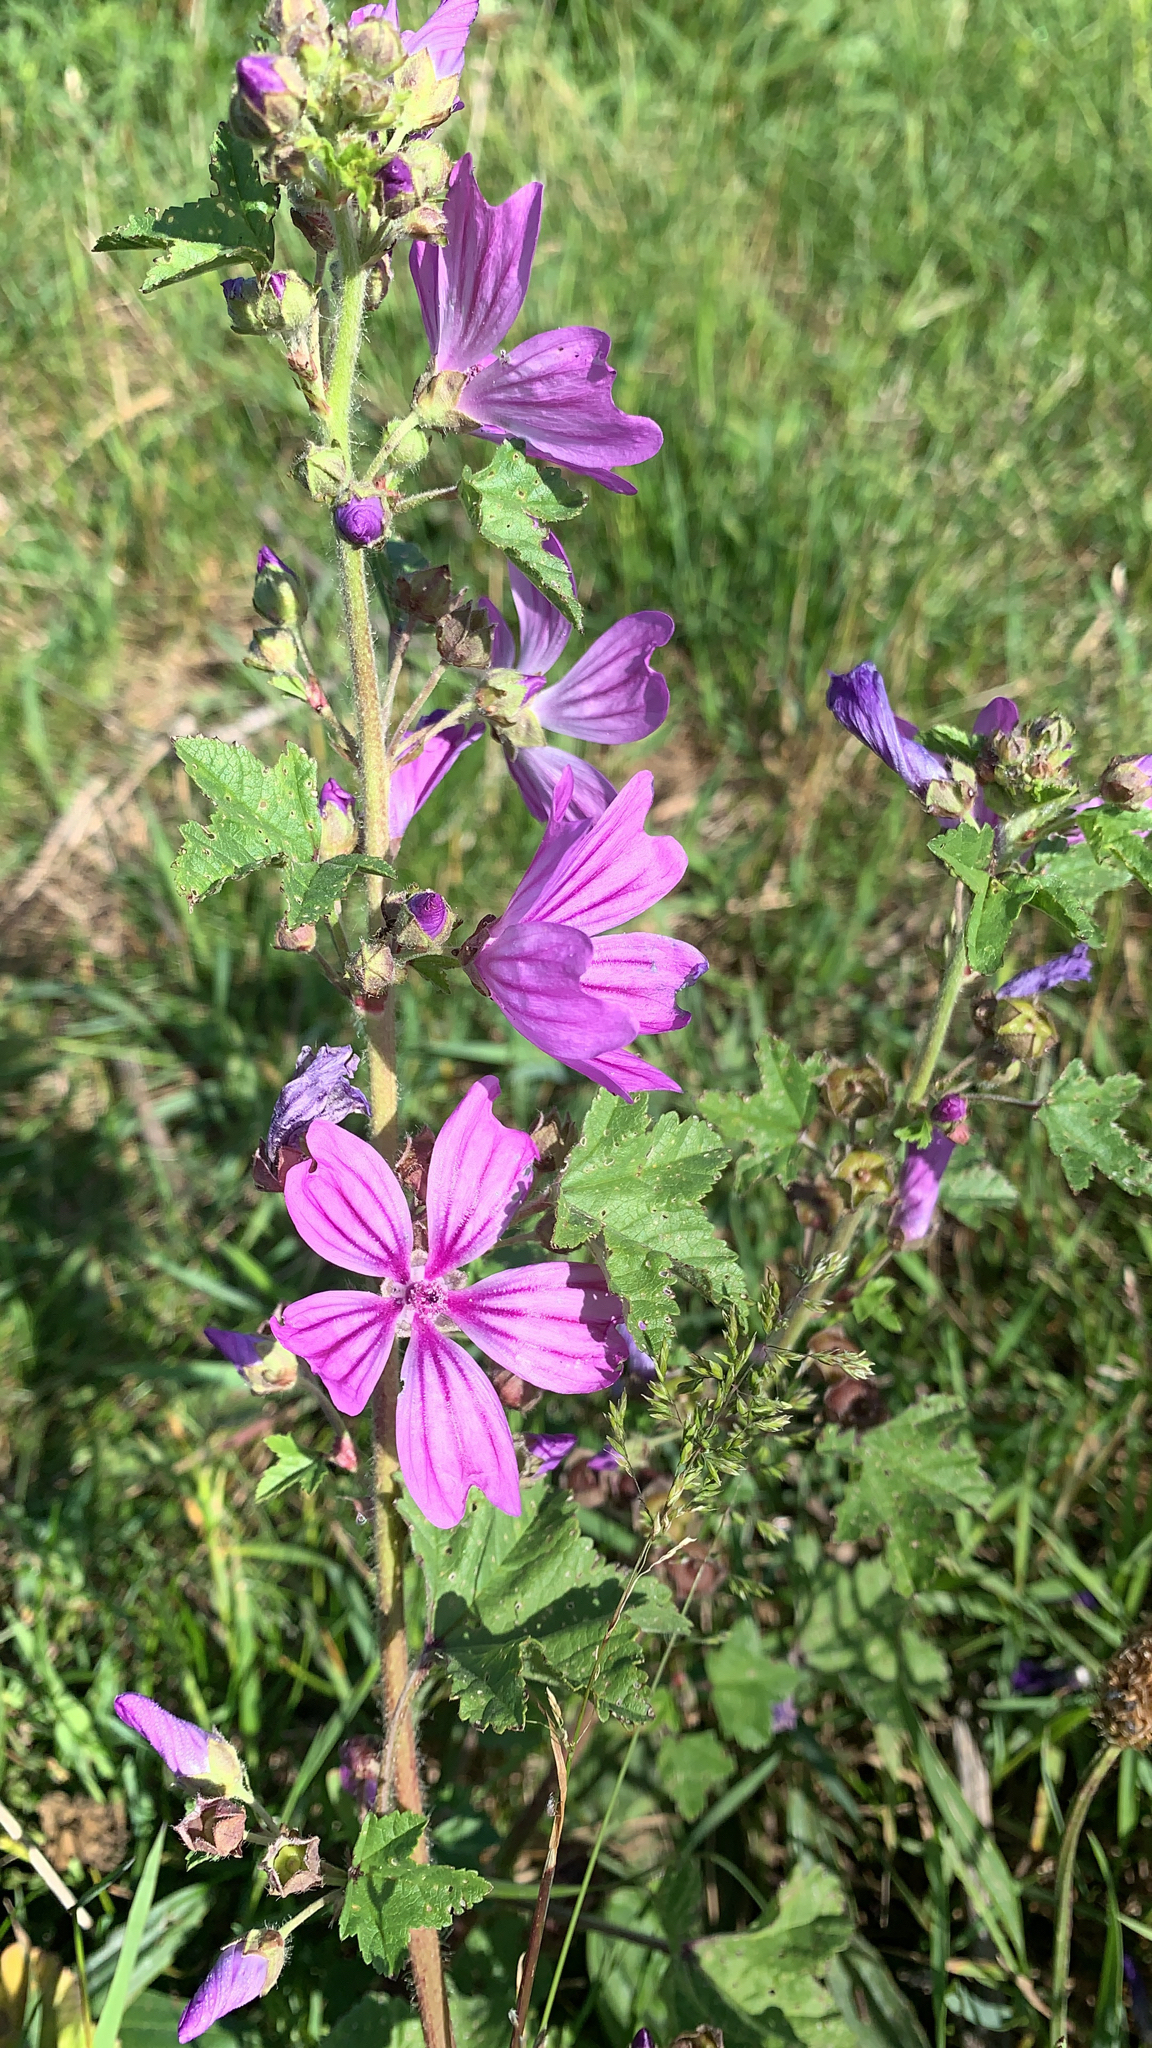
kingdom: Plantae
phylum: Tracheophyta
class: Magnoliopsida
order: Malvales
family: Malvaceae
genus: Malva
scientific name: Malva sylvestris
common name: Common mallow
